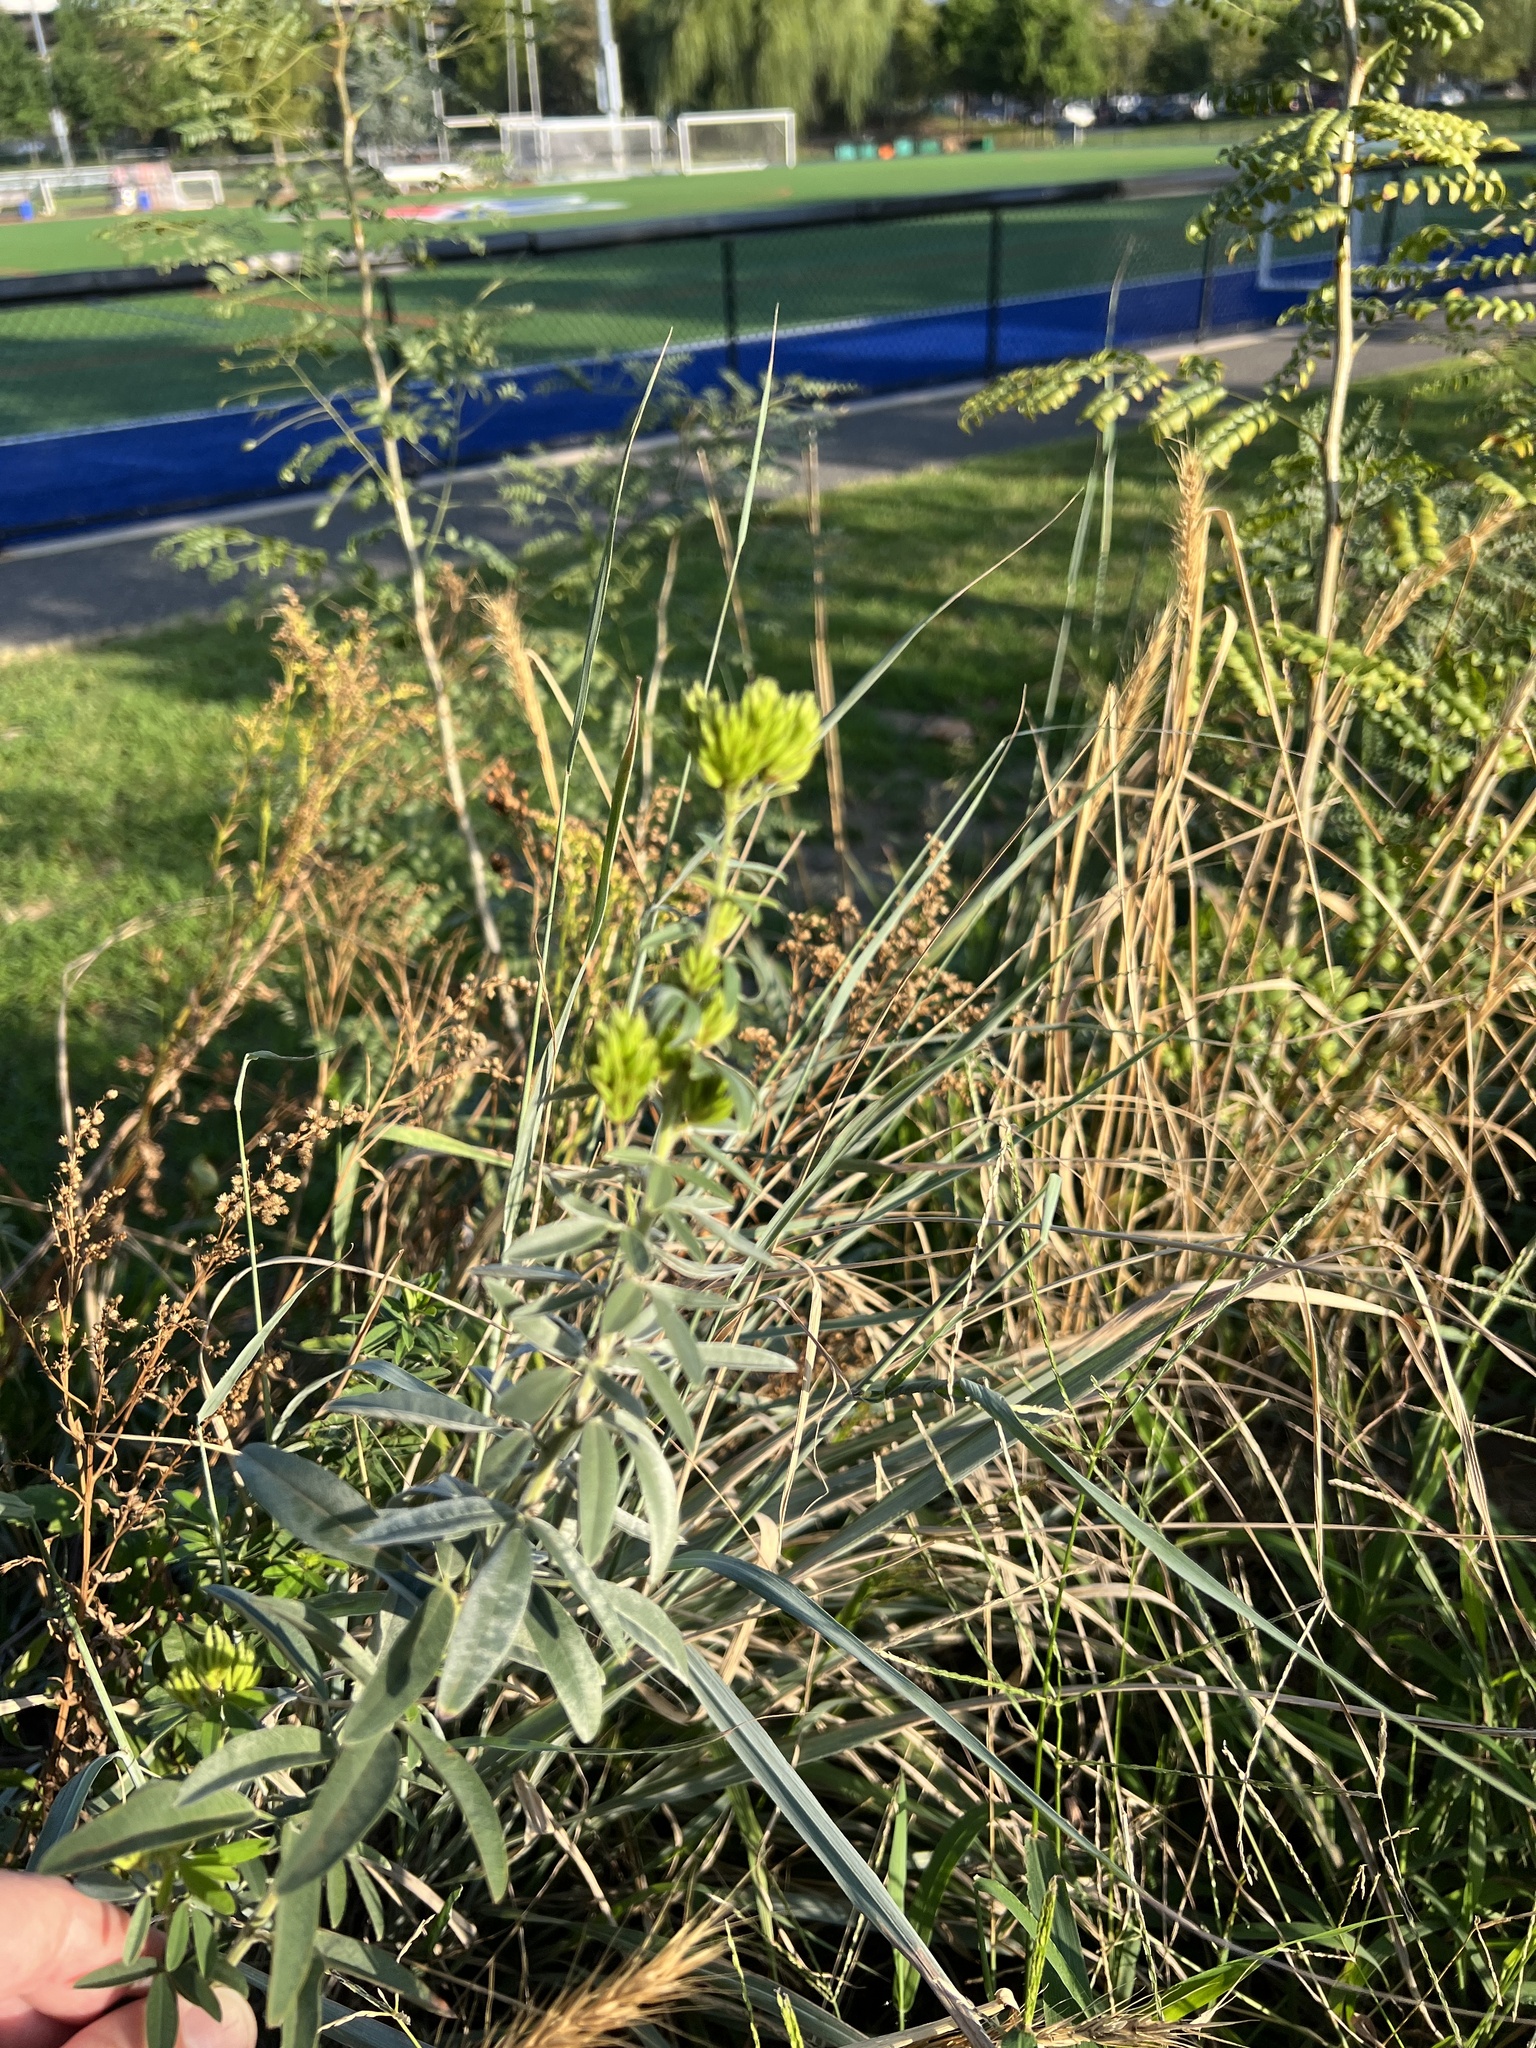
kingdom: Plantae
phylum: Tracheophyta
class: Magnoliopsida
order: Fabales
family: Fabaceae
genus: Lespedeza
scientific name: Lespedeza capitata
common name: Dusty clover
